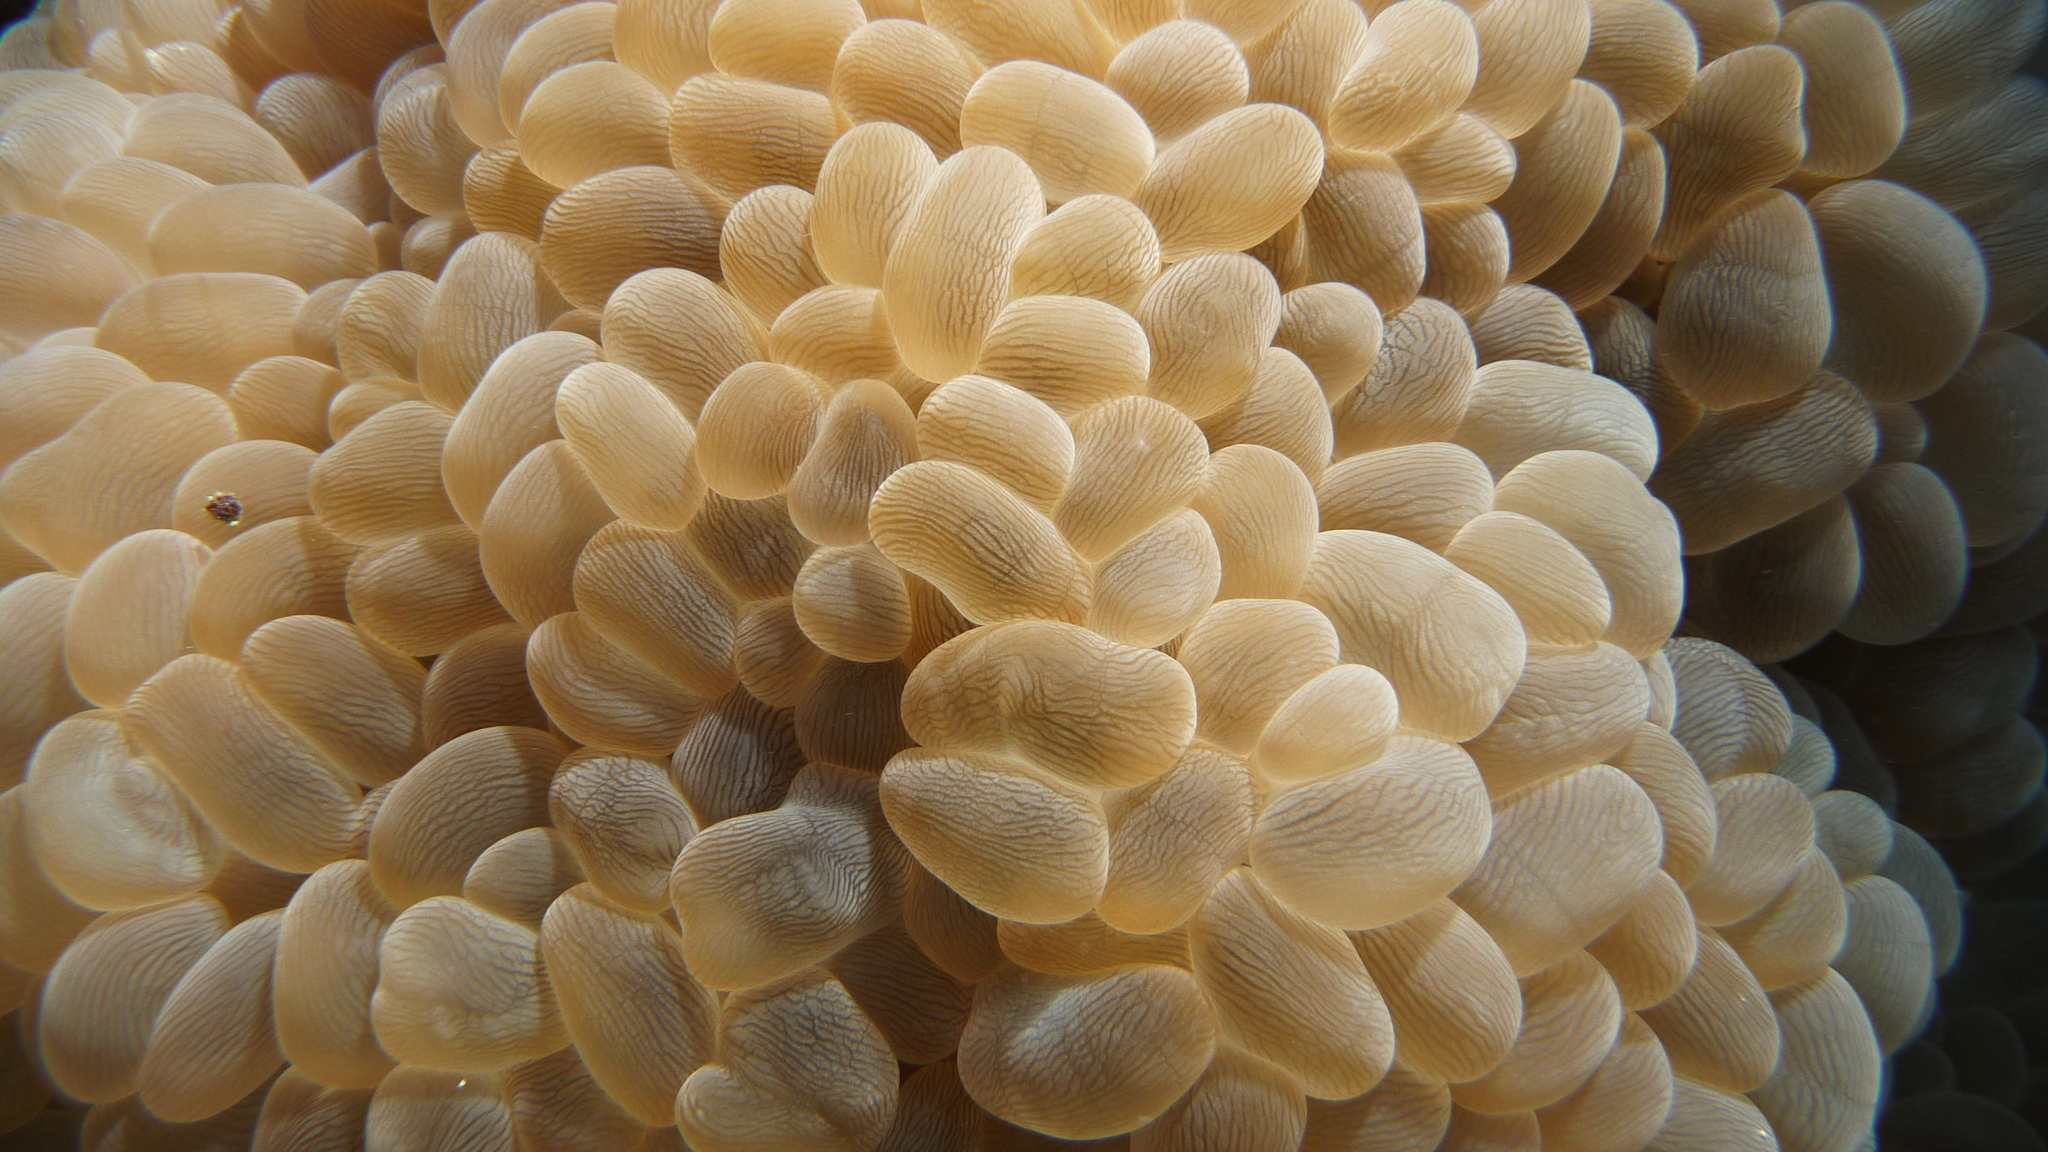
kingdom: Animalia
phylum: Cnidaria
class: Anthozoa
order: Scleractinia
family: Plerogyridae
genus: Plerogyra
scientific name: Plerogyra sinuosa
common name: Bubble coral
